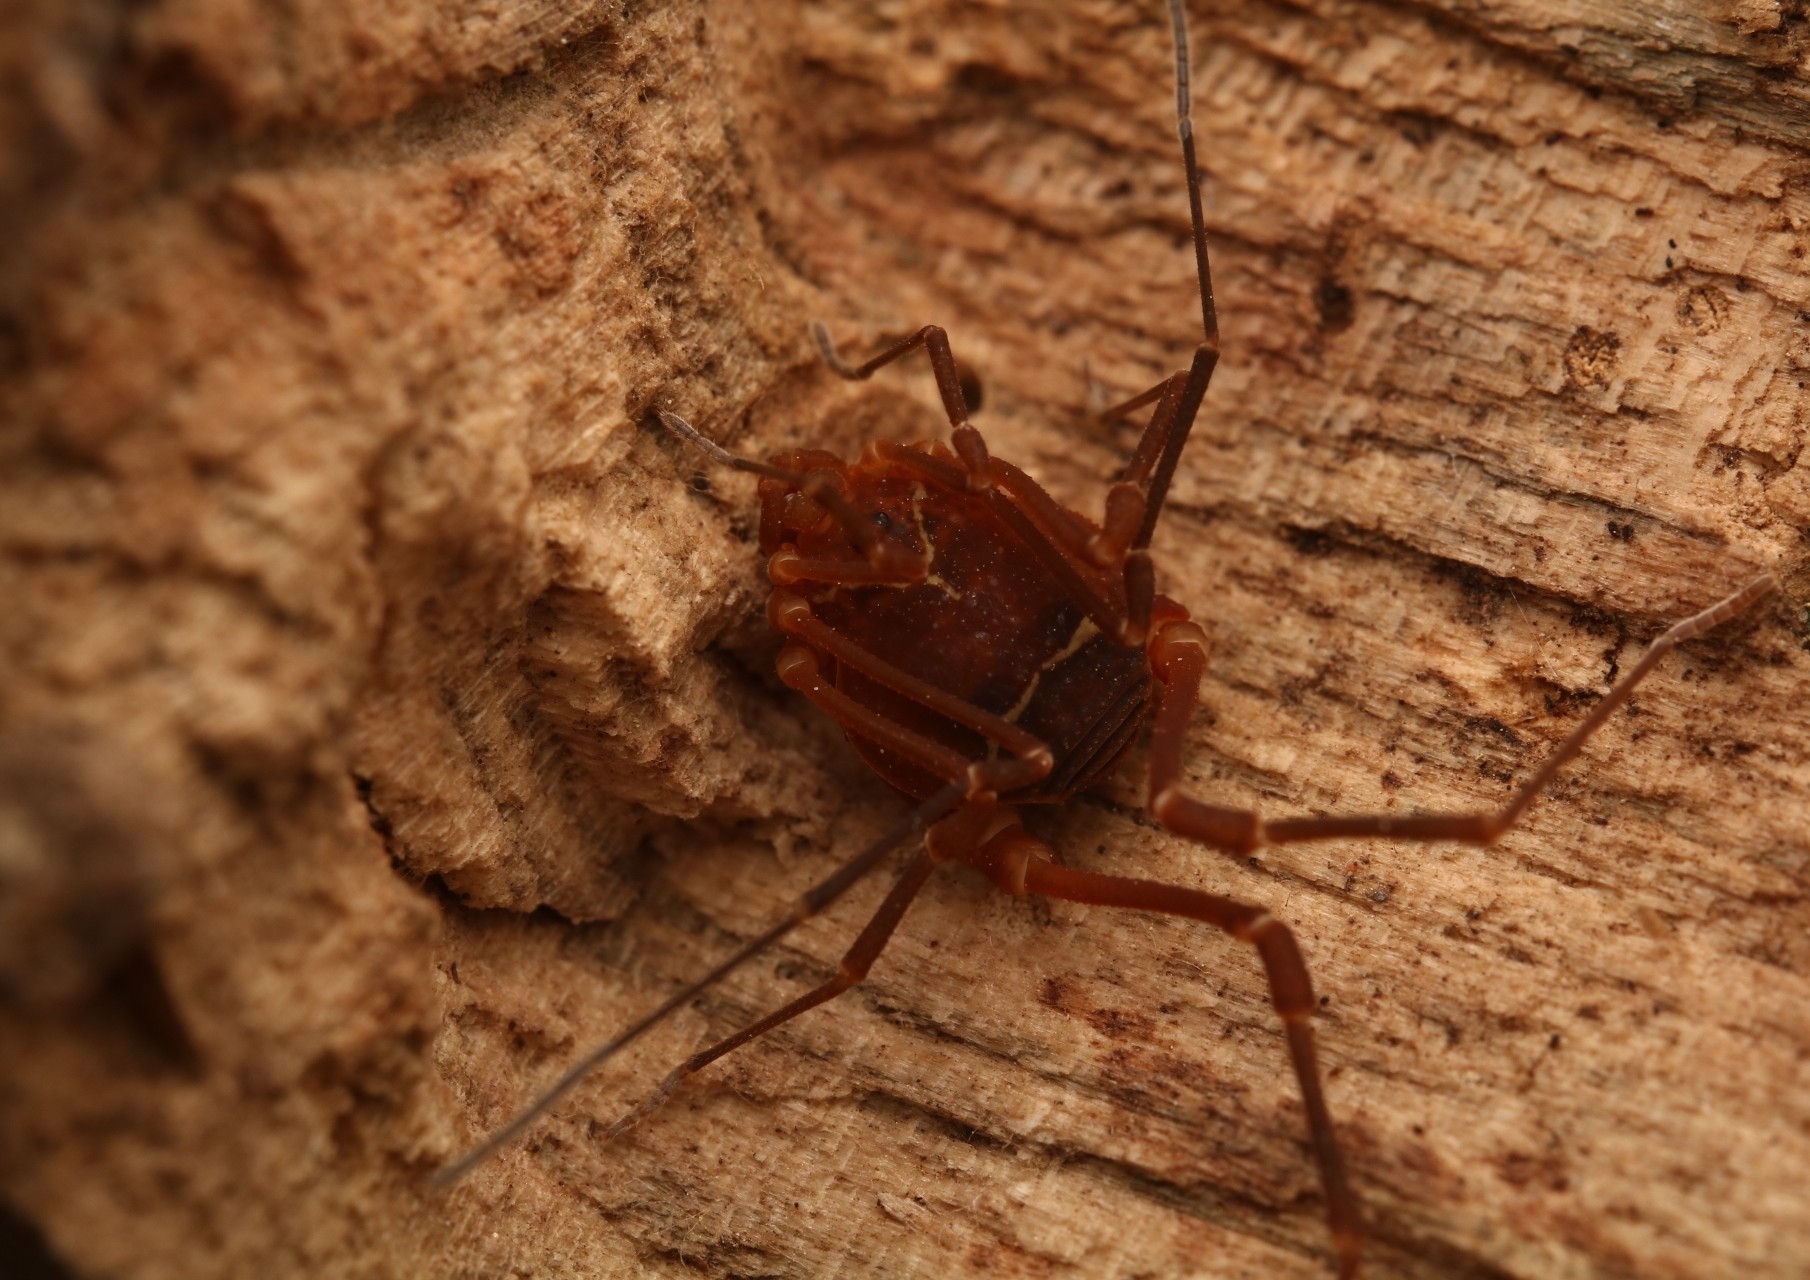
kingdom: Animalia
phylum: Arthropoda
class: Arachnida
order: Opiliones
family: Cosmetidae
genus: Libitioides
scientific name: Libitioides sayi
